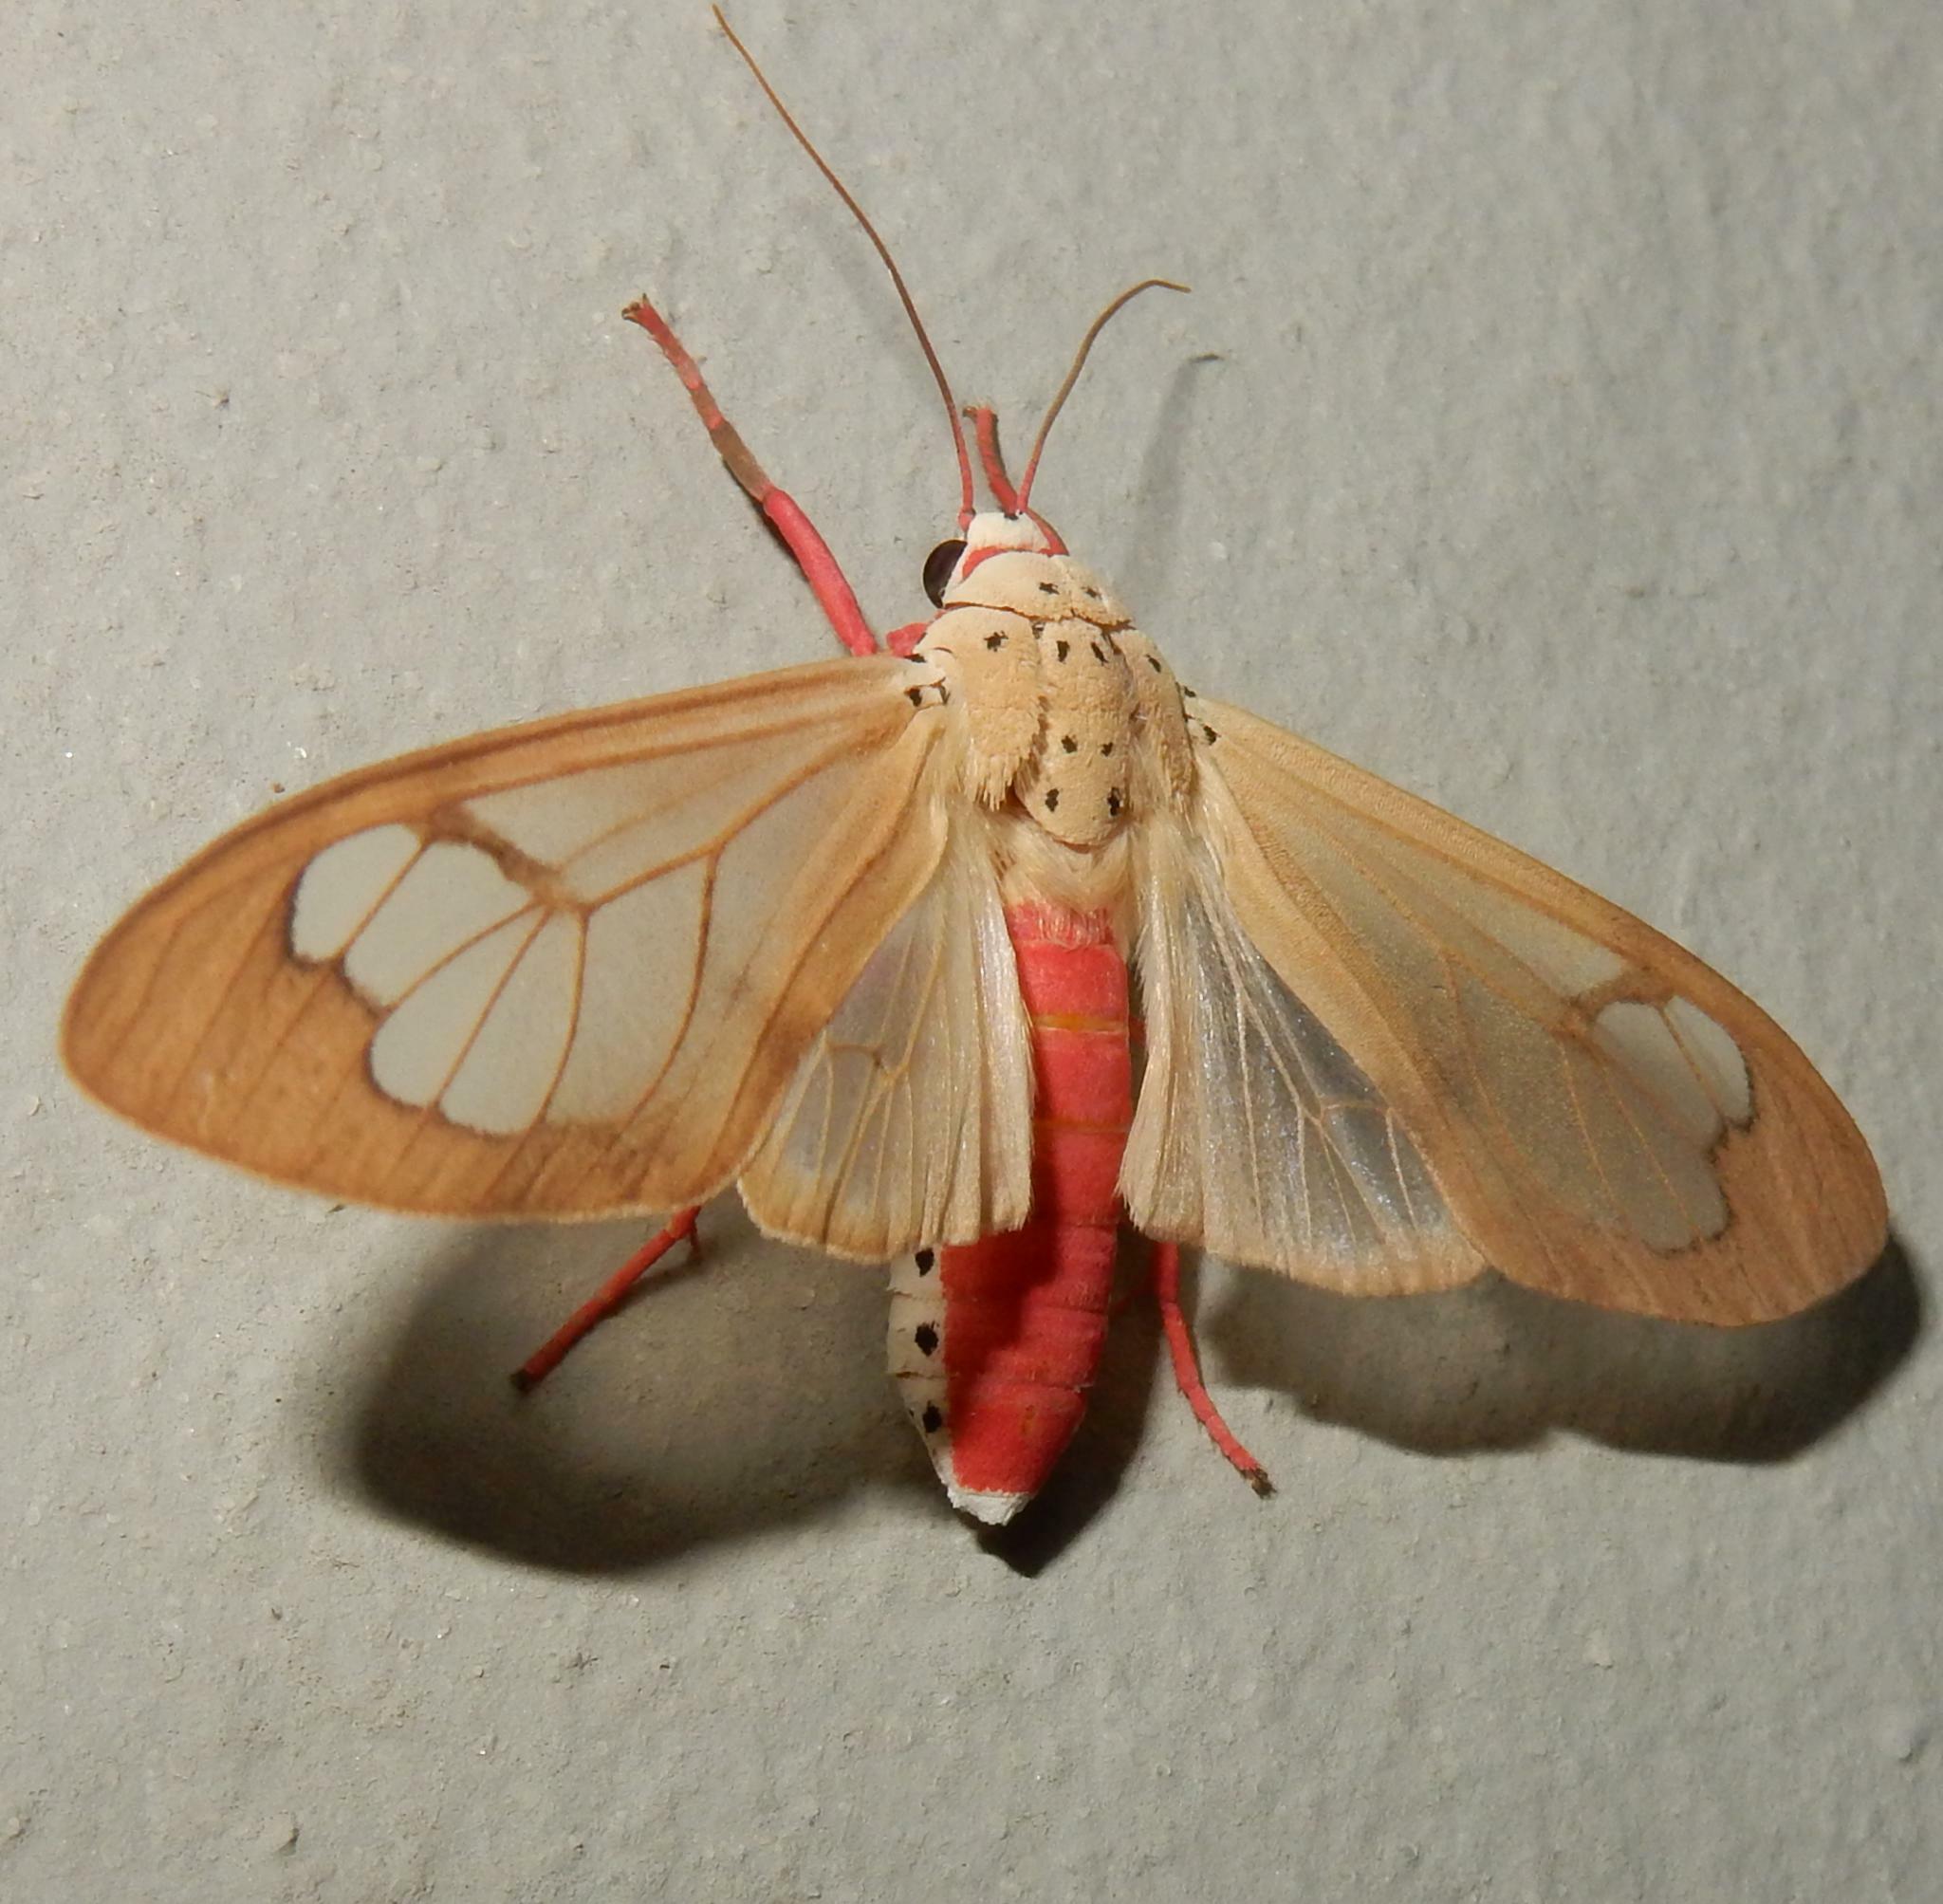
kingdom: Animalia
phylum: Arthropoda
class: Insecta
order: Lepidoptera
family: Erebidae
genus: Amerila
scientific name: Amerila bauri
